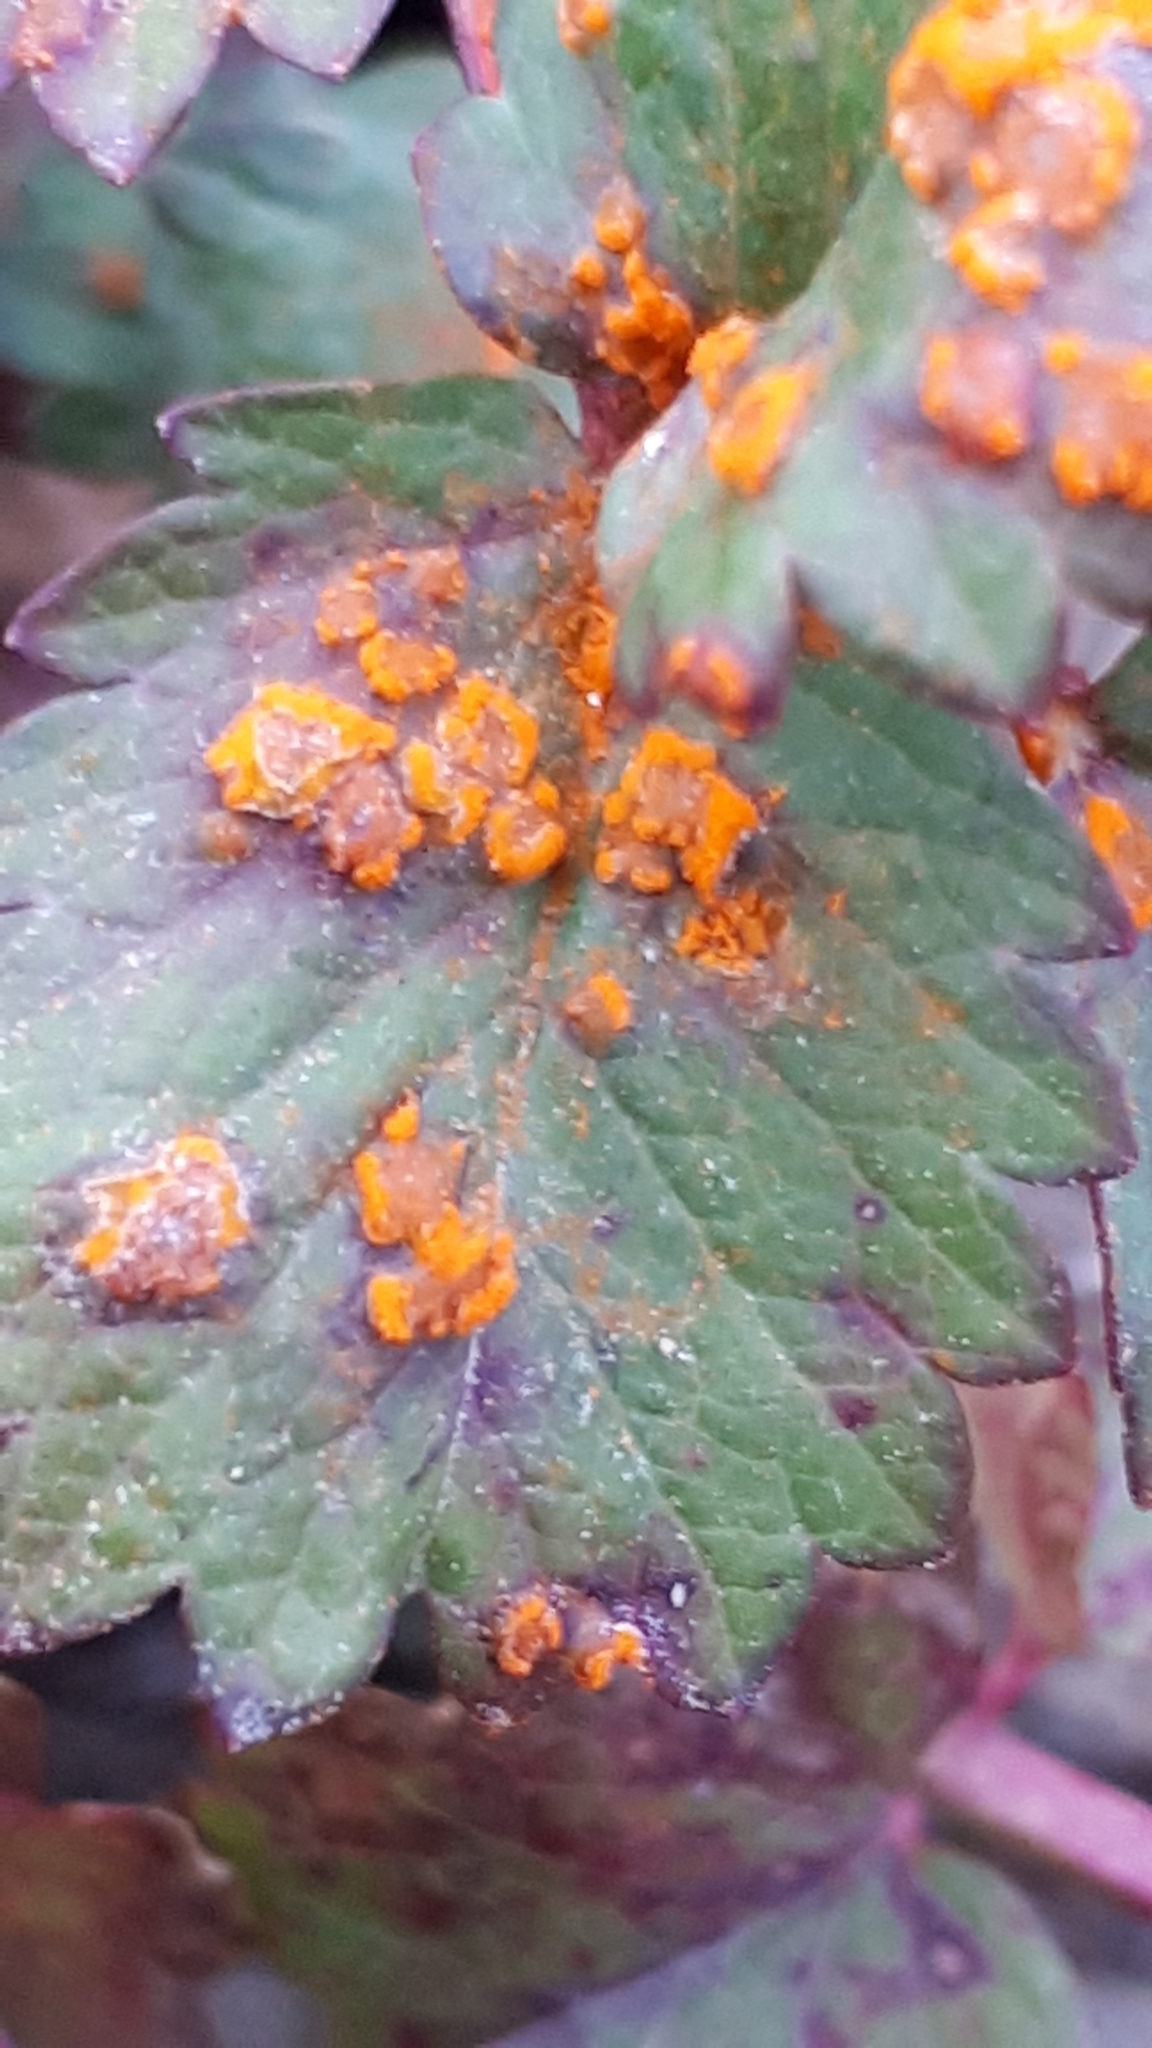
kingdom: Fungi
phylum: Basidiomycota
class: Pucciniomycetes
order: Pucciniales
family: Phragmidiaceae
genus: Phragmidium
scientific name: Phragmidium sanguisorbae
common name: Salad burnet rust
